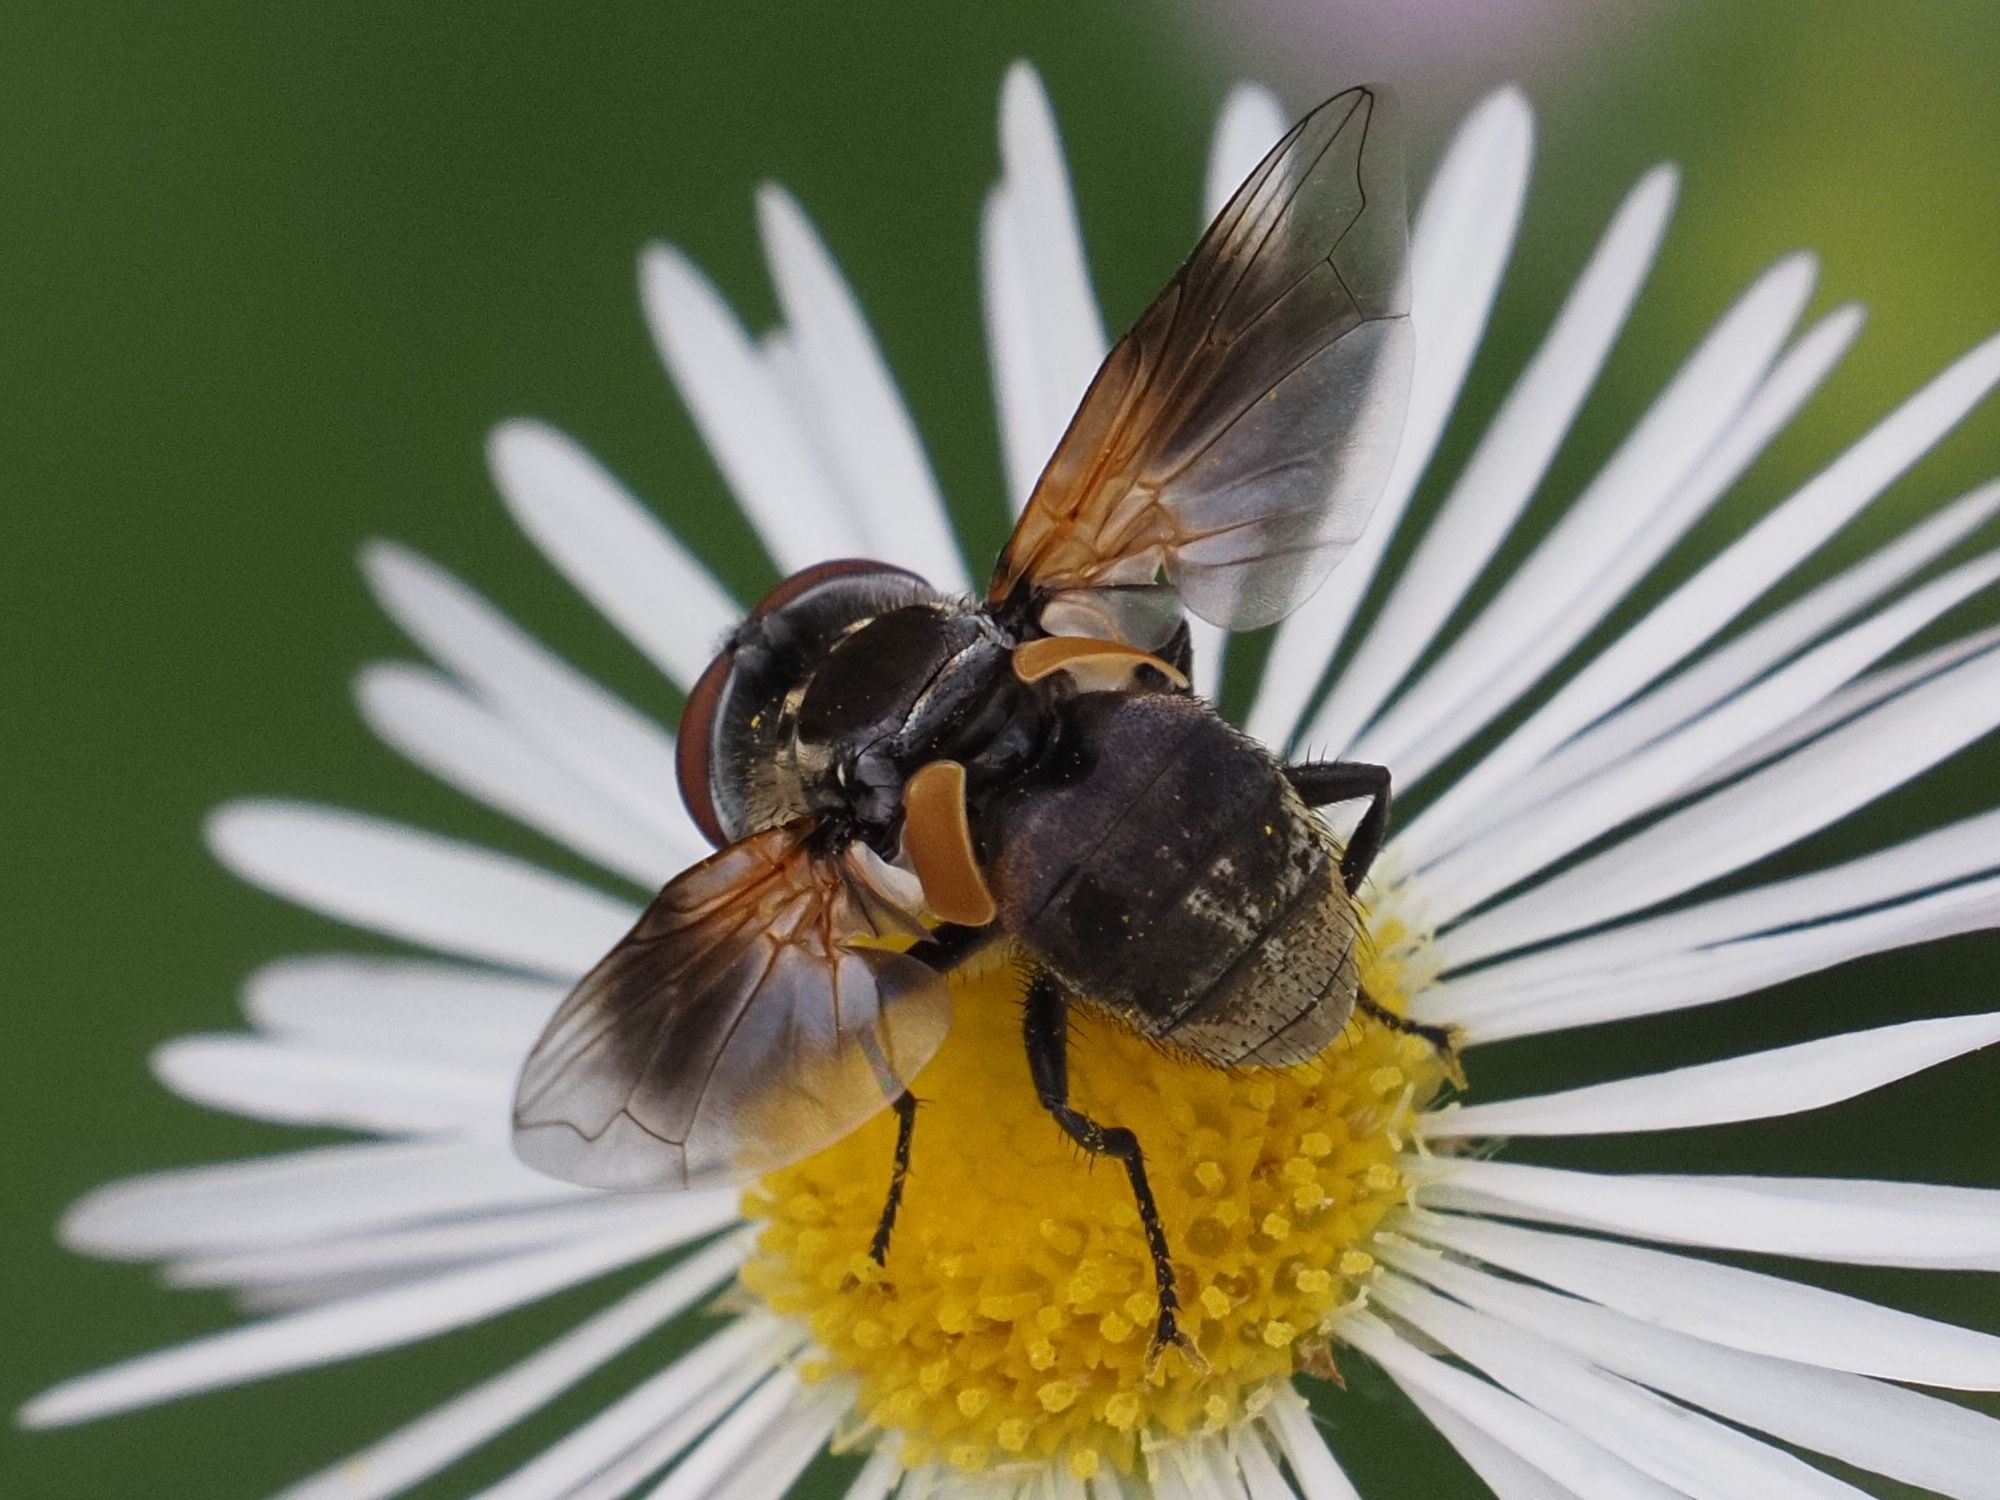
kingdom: Animalia
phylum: Arthropoda
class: Insecta
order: Diptera
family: Tachinidae
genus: Elomya
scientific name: Elomya lateralis
